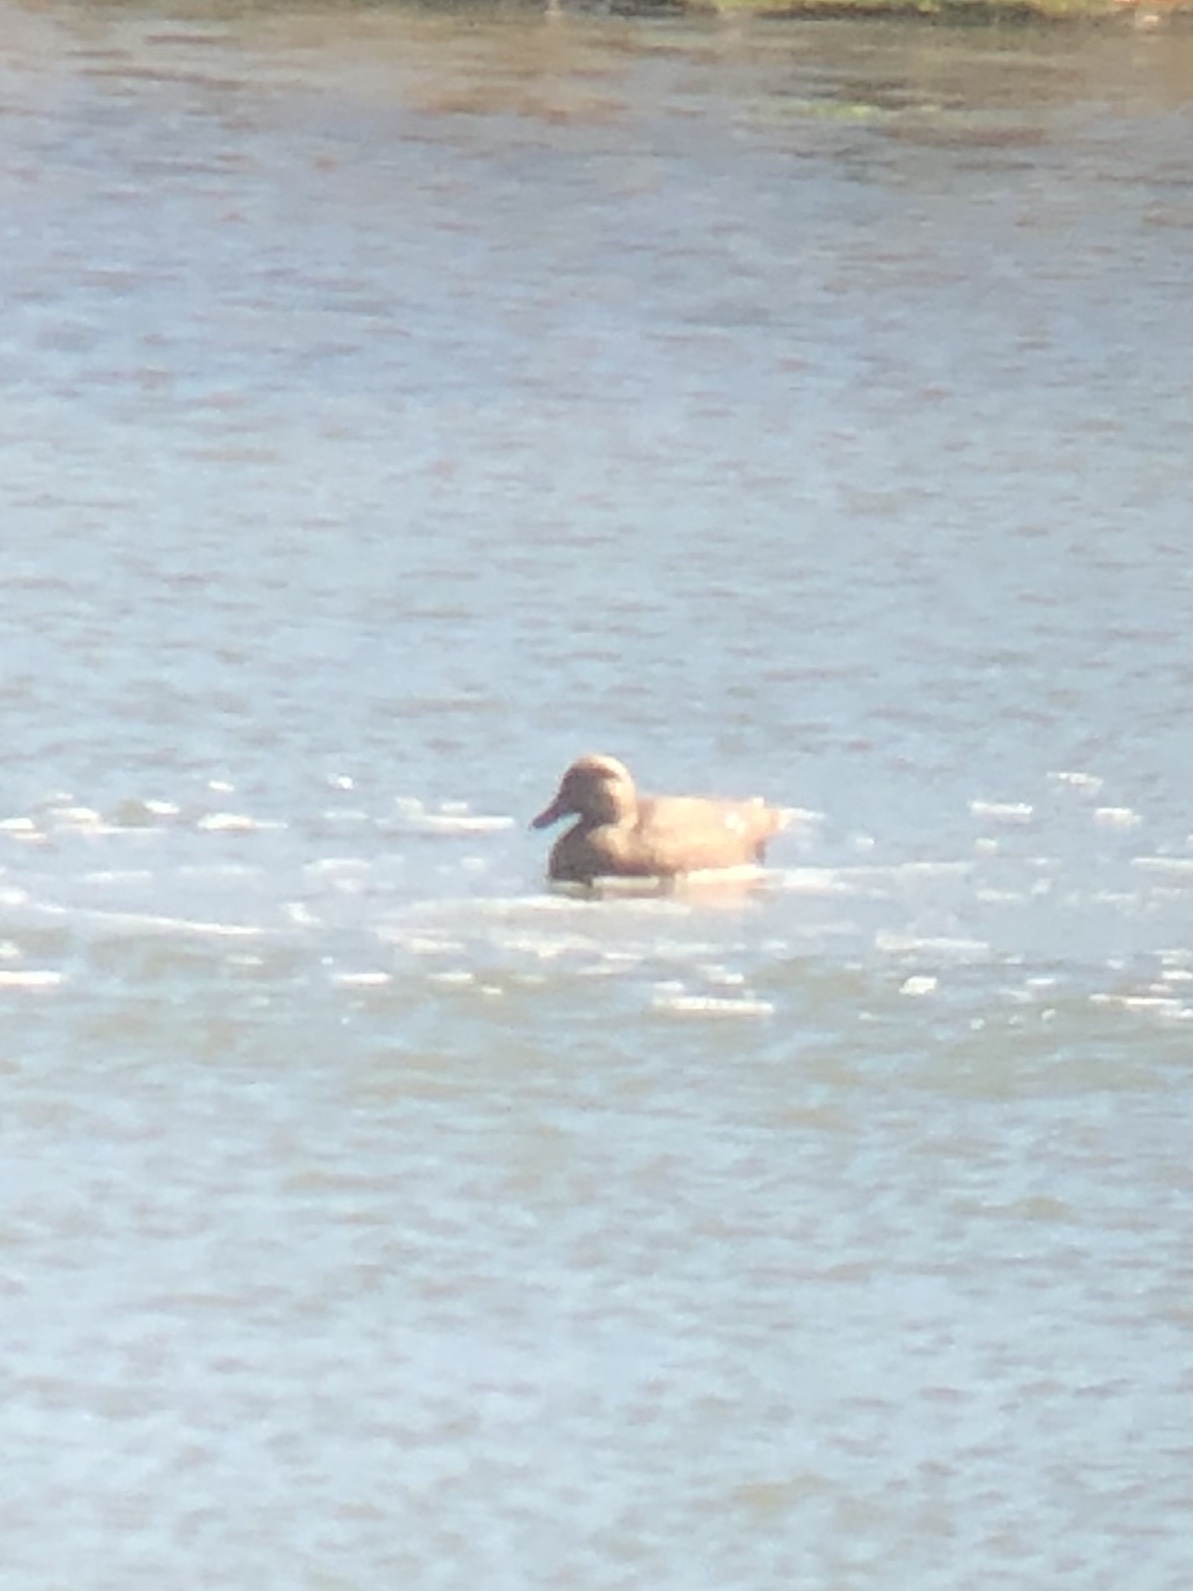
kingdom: Animalia
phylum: Chordata
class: Aves
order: Anseriformes
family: Anatidae
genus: Anas
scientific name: Anas platyrhynchos
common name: Mallard
